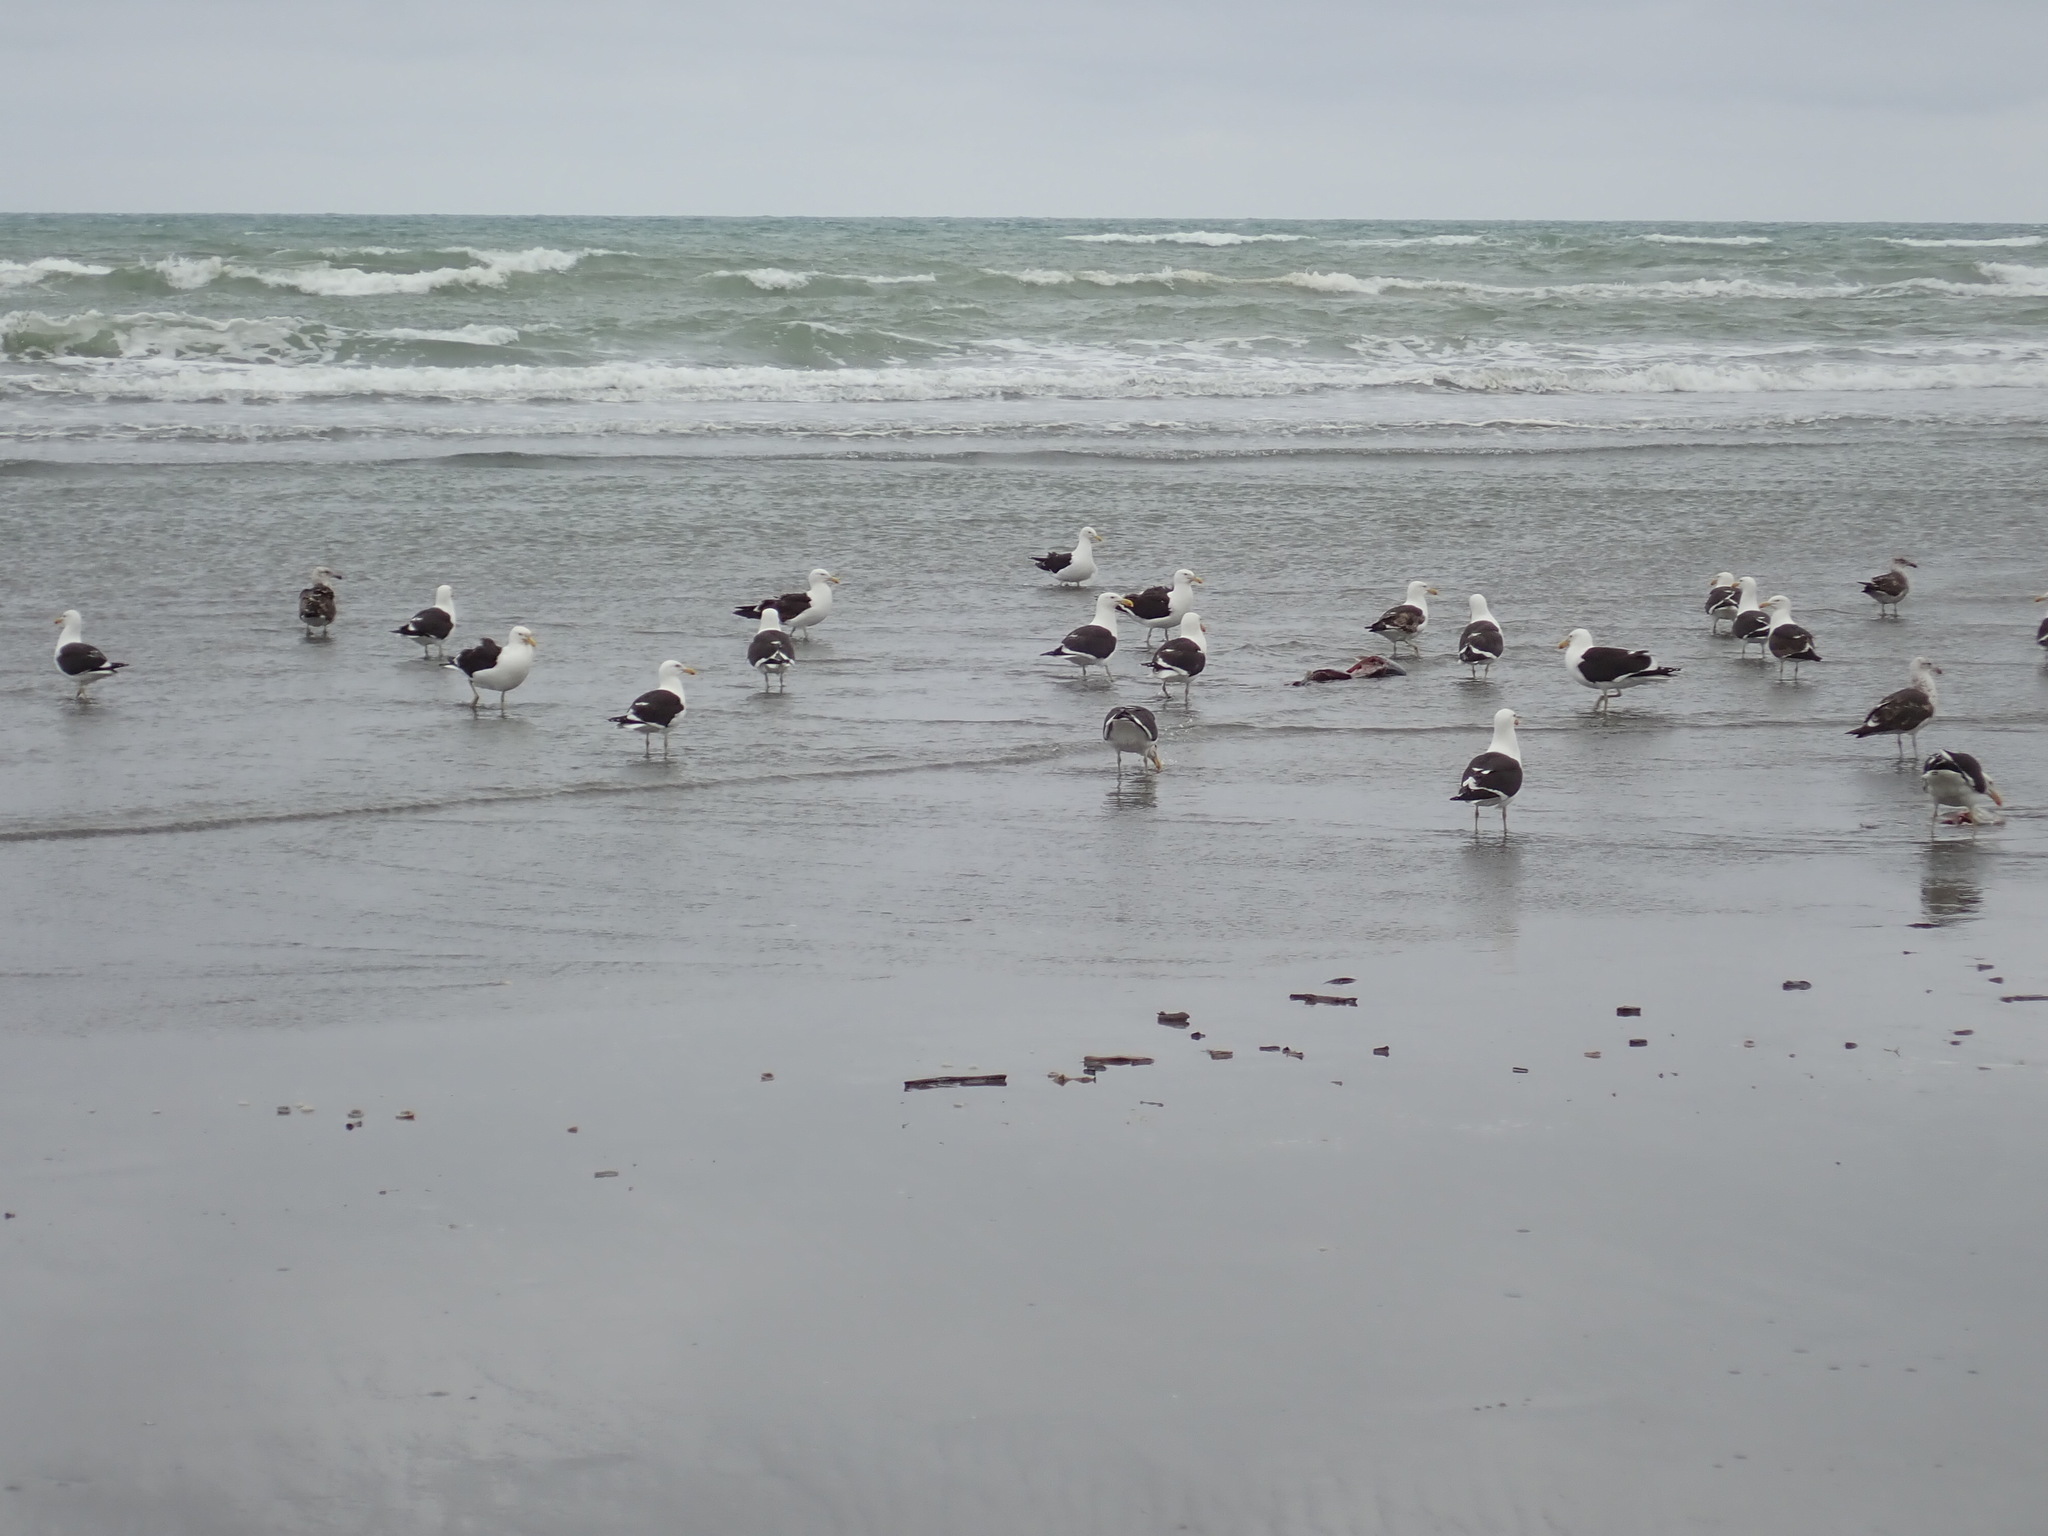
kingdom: Animalia
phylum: Chordata
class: Aves
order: Charadriiformes
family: Laridae
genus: Larus
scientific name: Larus dominicanus
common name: Kelp gull
